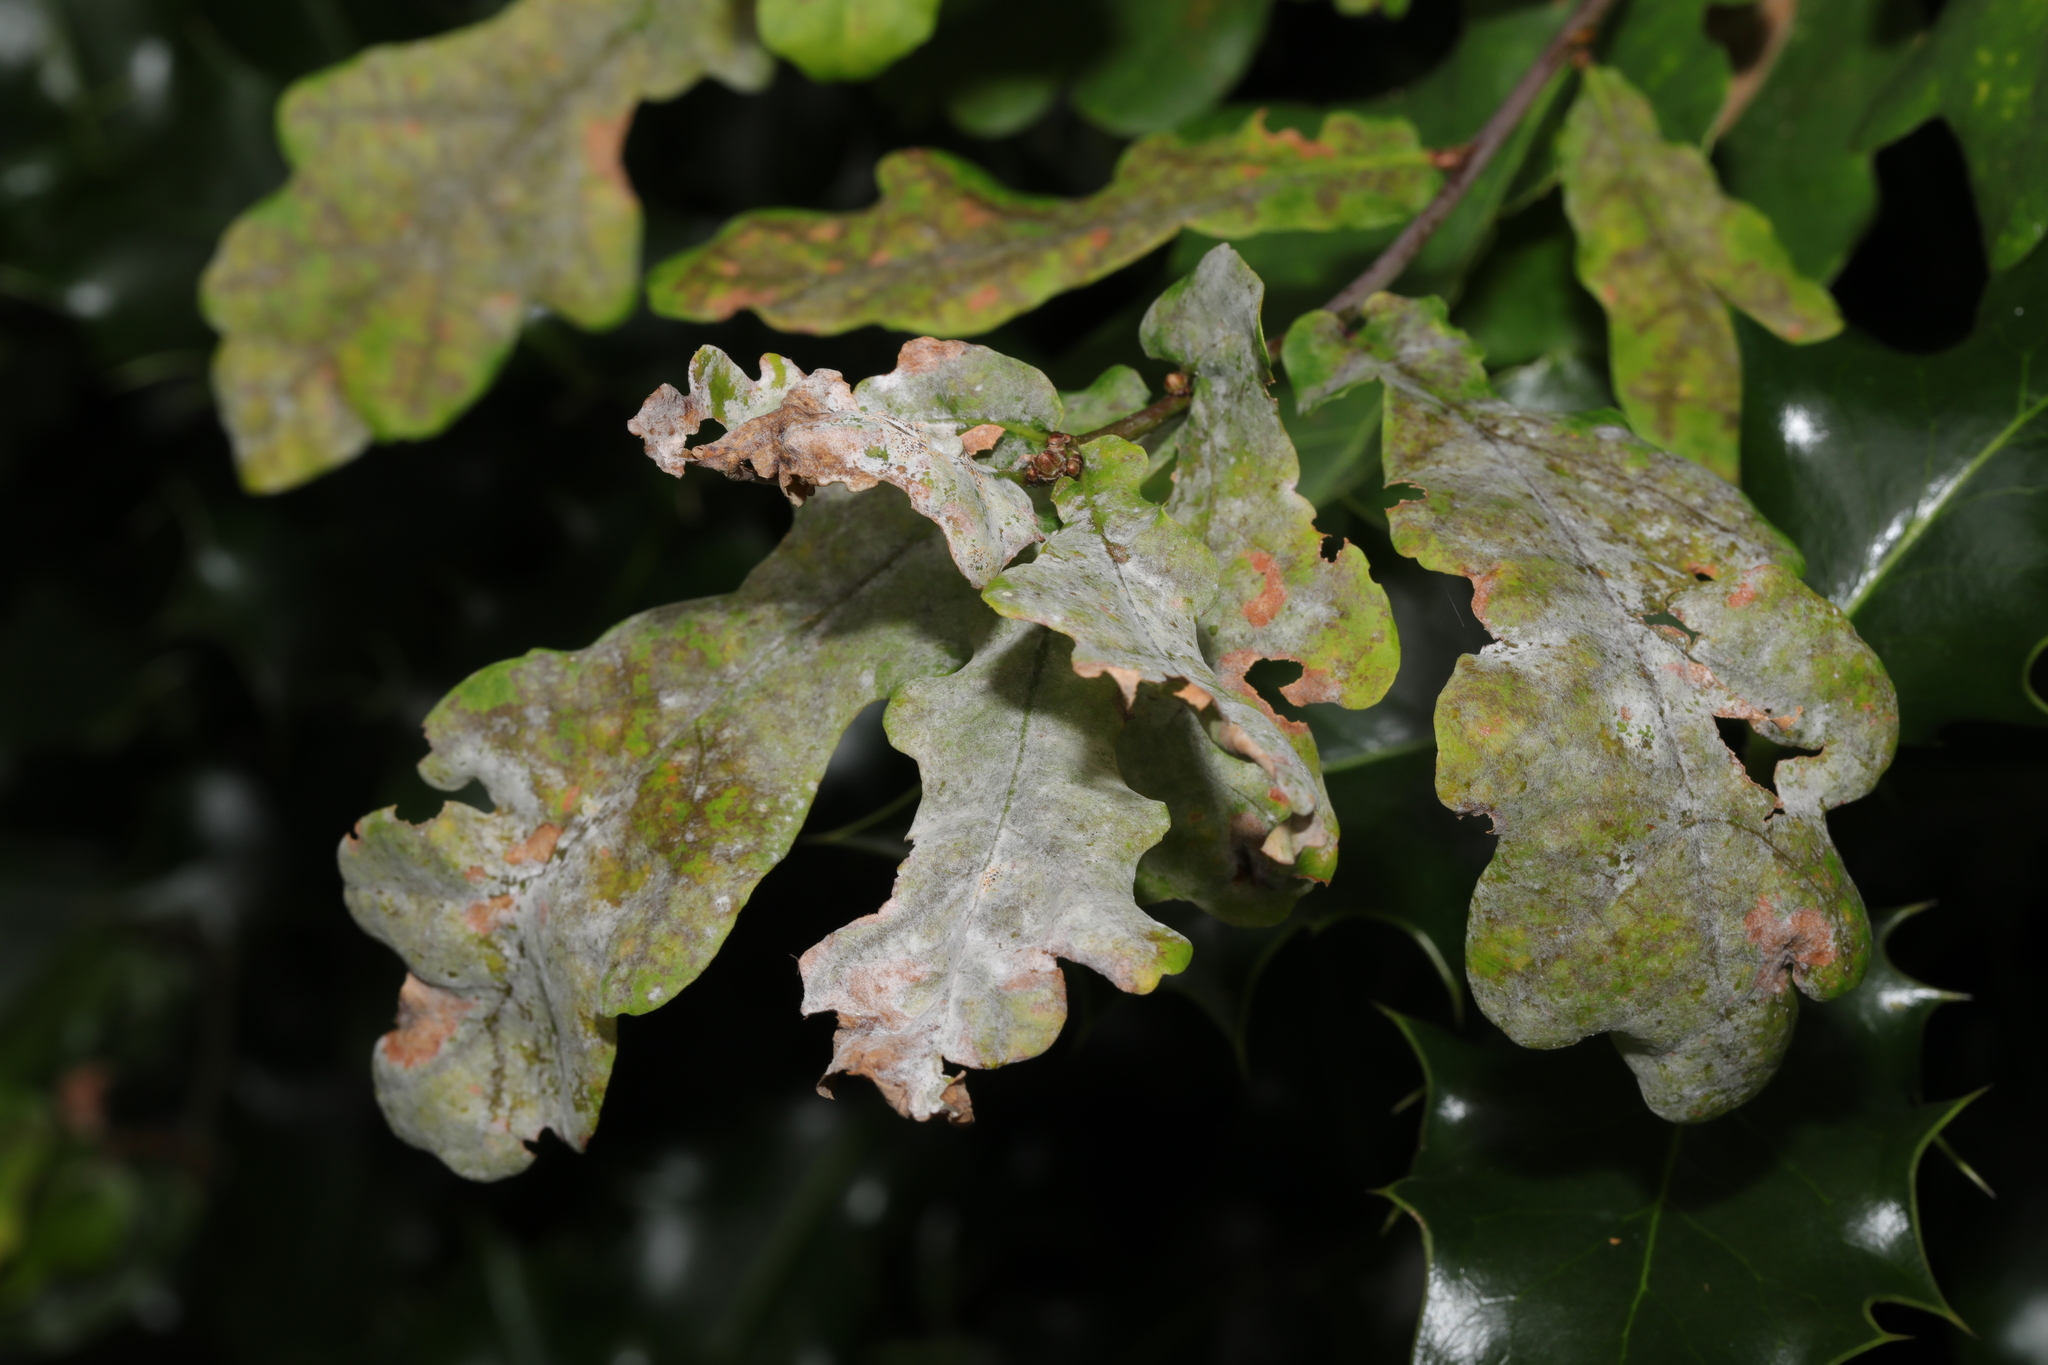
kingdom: Fungi
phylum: Ascomycota
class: Leotiomycetes
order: Helotiales
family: Erysiphaceae
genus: Erysiphe
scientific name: Erysiphe alphitoides
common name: Oak mildew
